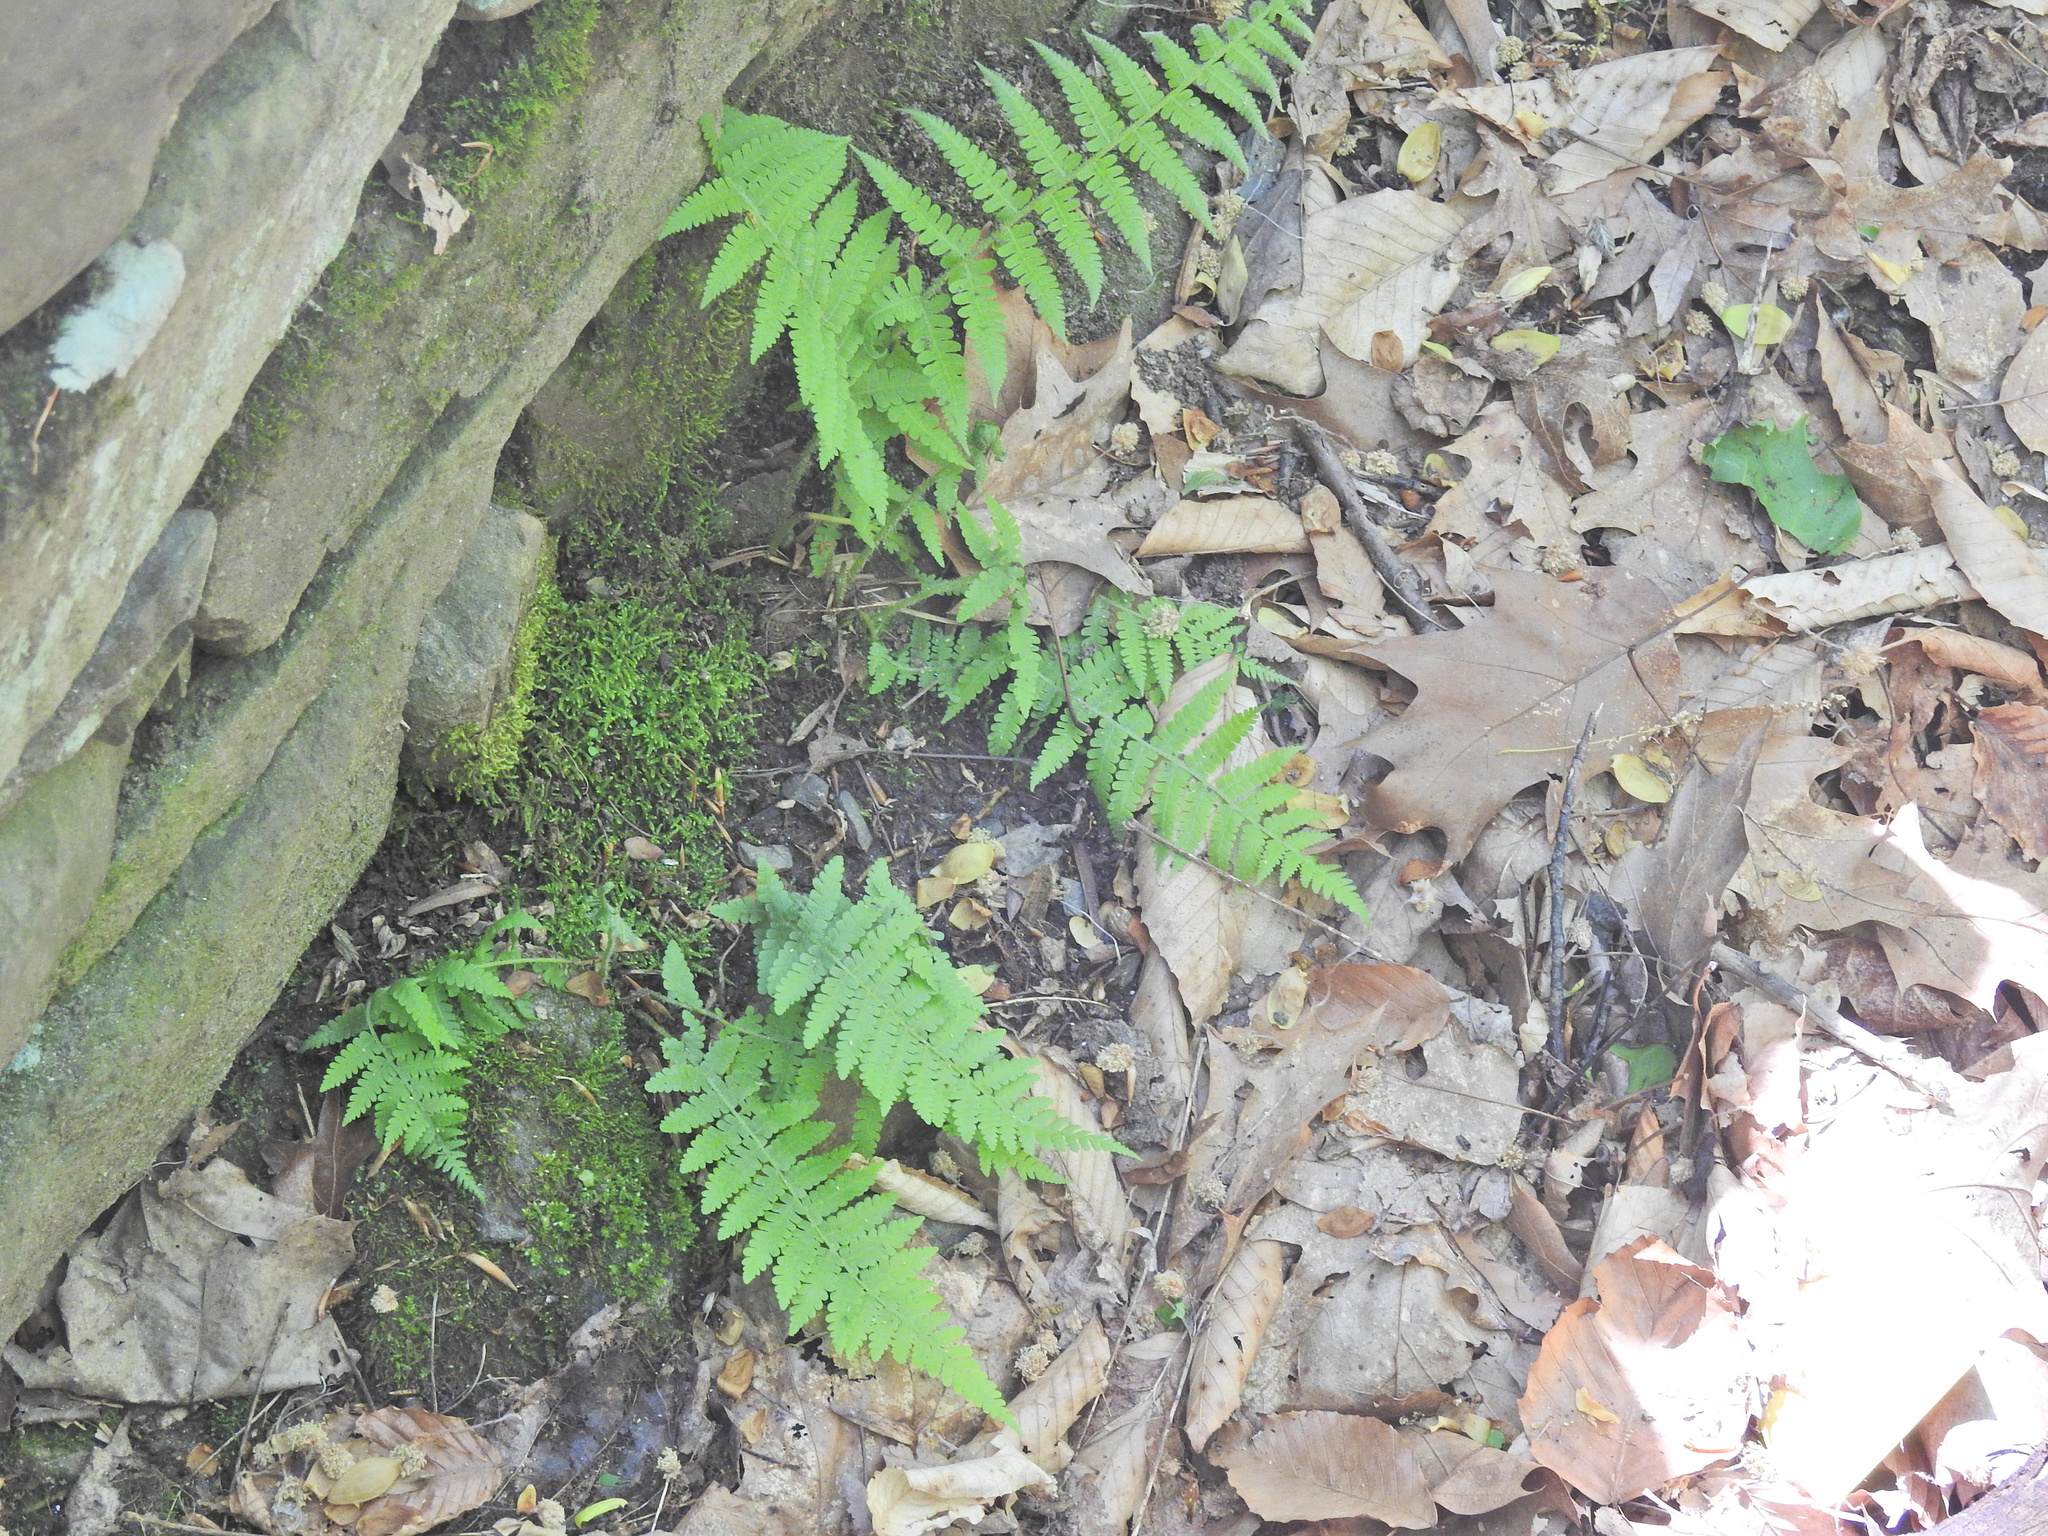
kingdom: Plantae
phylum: Tracheophyta
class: Polypodiopsida
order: Polypodiales
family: Athyriaceae
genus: Deparia
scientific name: Deparia acrostichoides
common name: Silver false spleenwort
